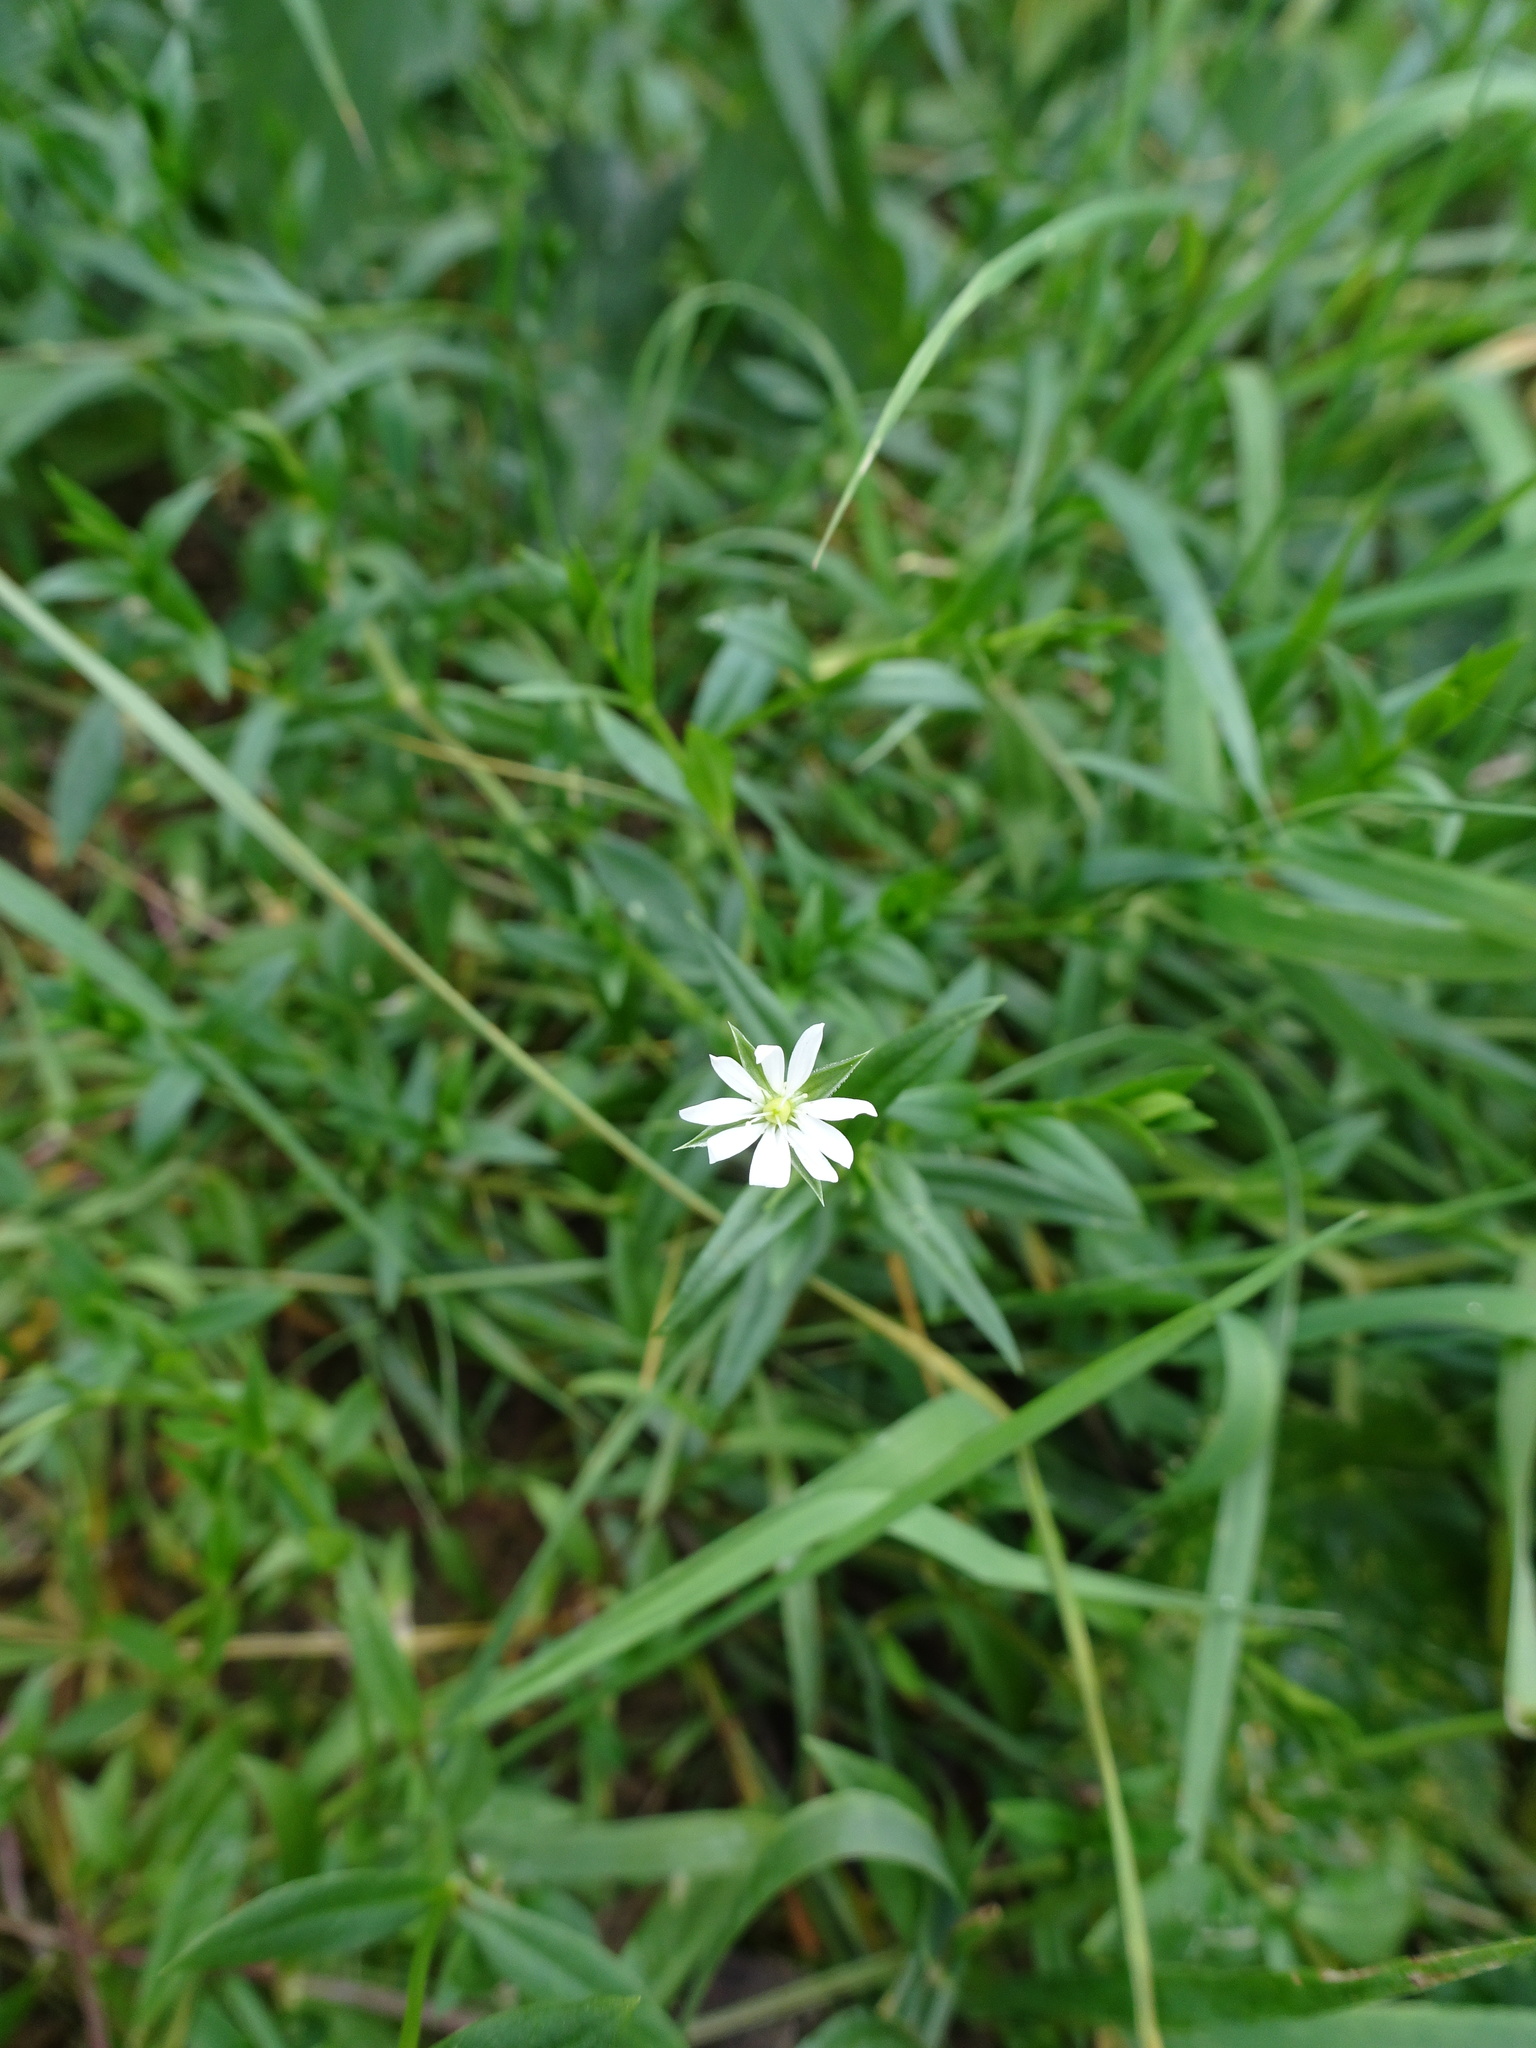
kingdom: Plantae
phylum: Tracheophyta
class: Magnoliopsida
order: Caryophyllales
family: Caryophyllaceae
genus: Stellaria
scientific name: Stellaria alsine
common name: Bog stitchwort
